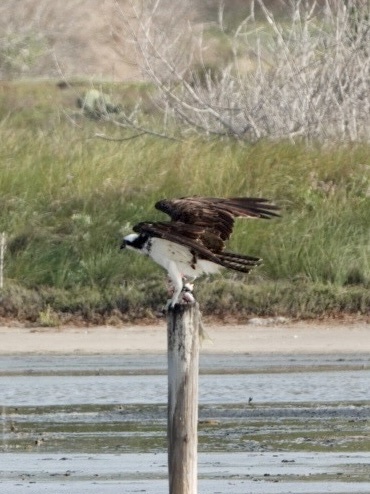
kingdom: Animalia
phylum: Chordata
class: Aves
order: Accipitriformes
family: Pandionidae
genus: Pandion
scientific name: Pandion haliaetus
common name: Osprey
